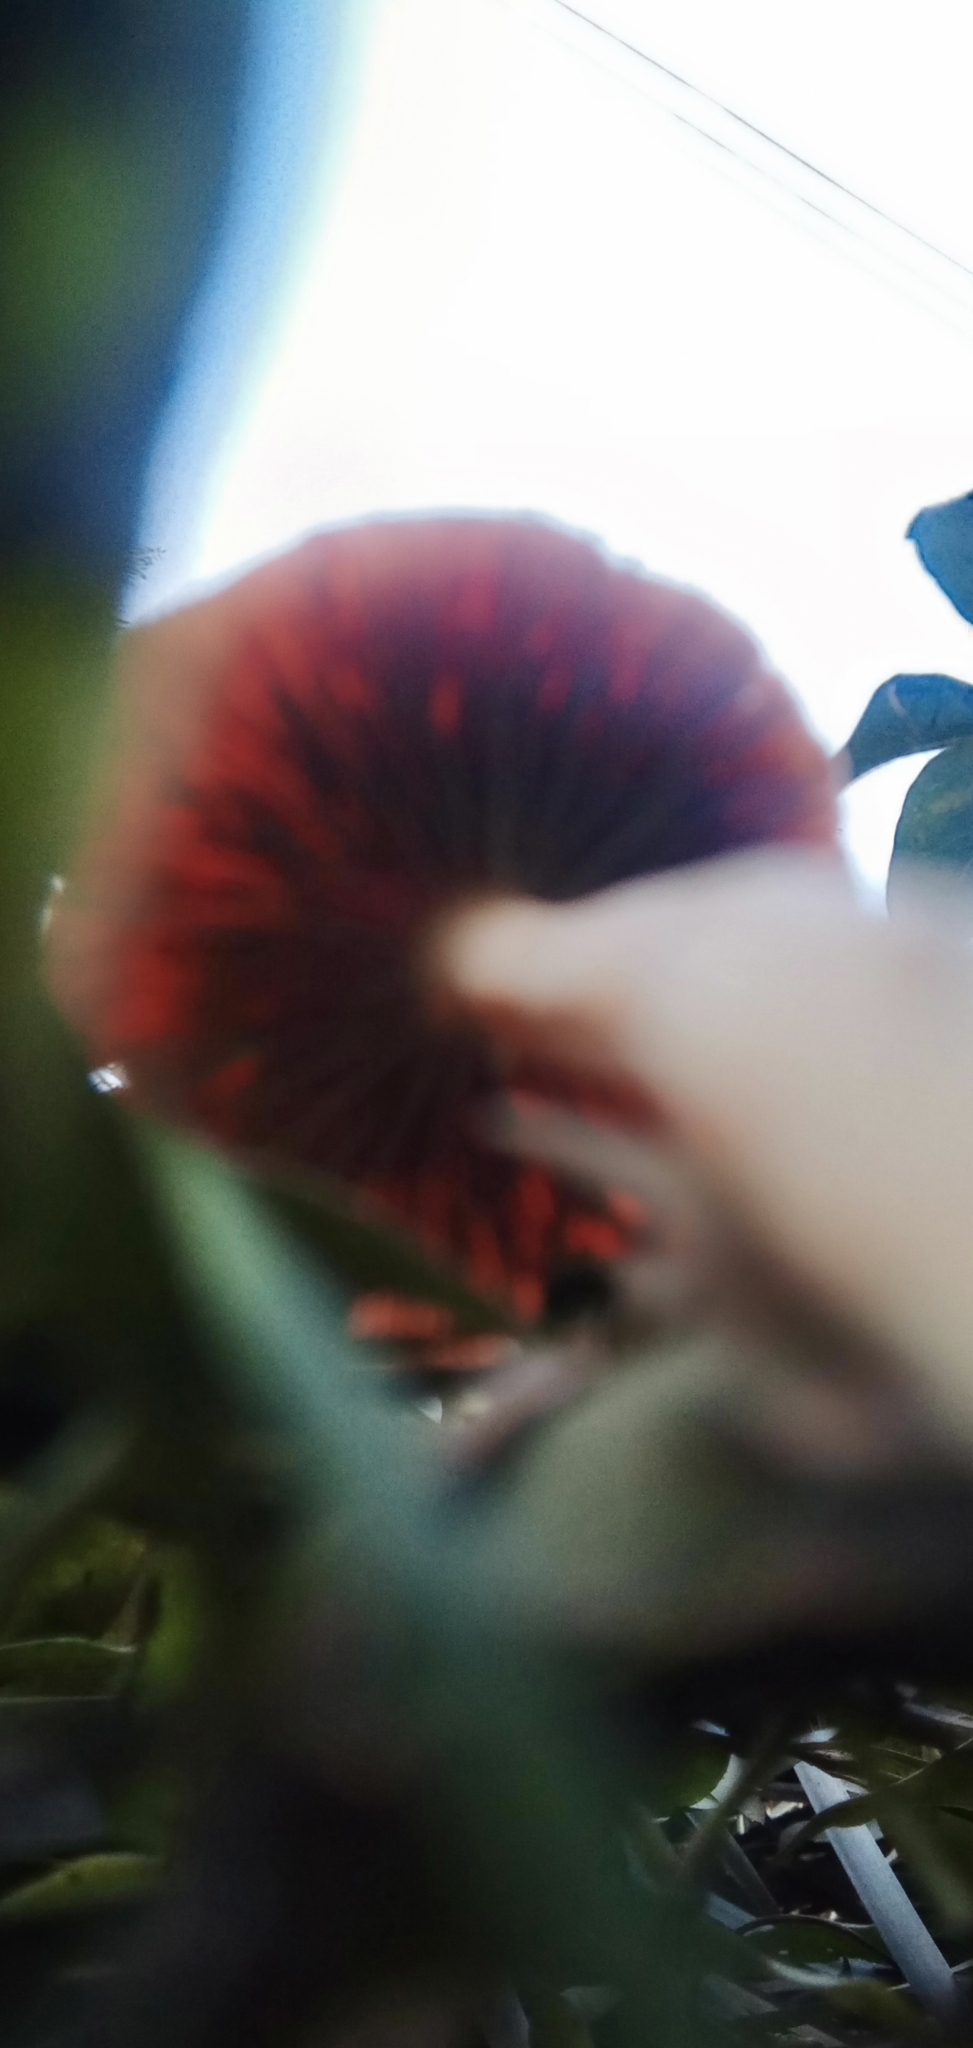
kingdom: Fungi
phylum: Basidiomycota
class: Agaricomycetes
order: Agaricales
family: Strophariaceae
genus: Leratiomyces
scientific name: Leratiomyces ceres
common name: Redlead roundhead
